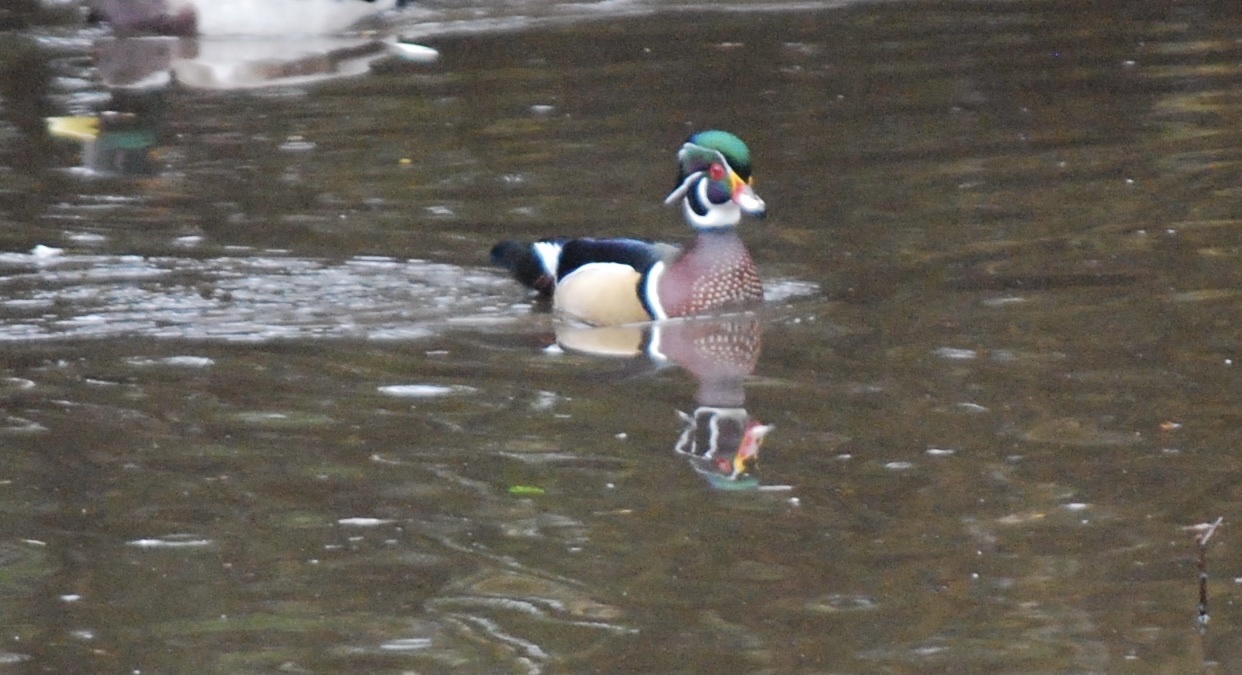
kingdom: Animalia
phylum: Chordata
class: Aves
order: Anseriformes
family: Anatidae
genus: Aix
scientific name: Aix sponsa
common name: Wood duck
